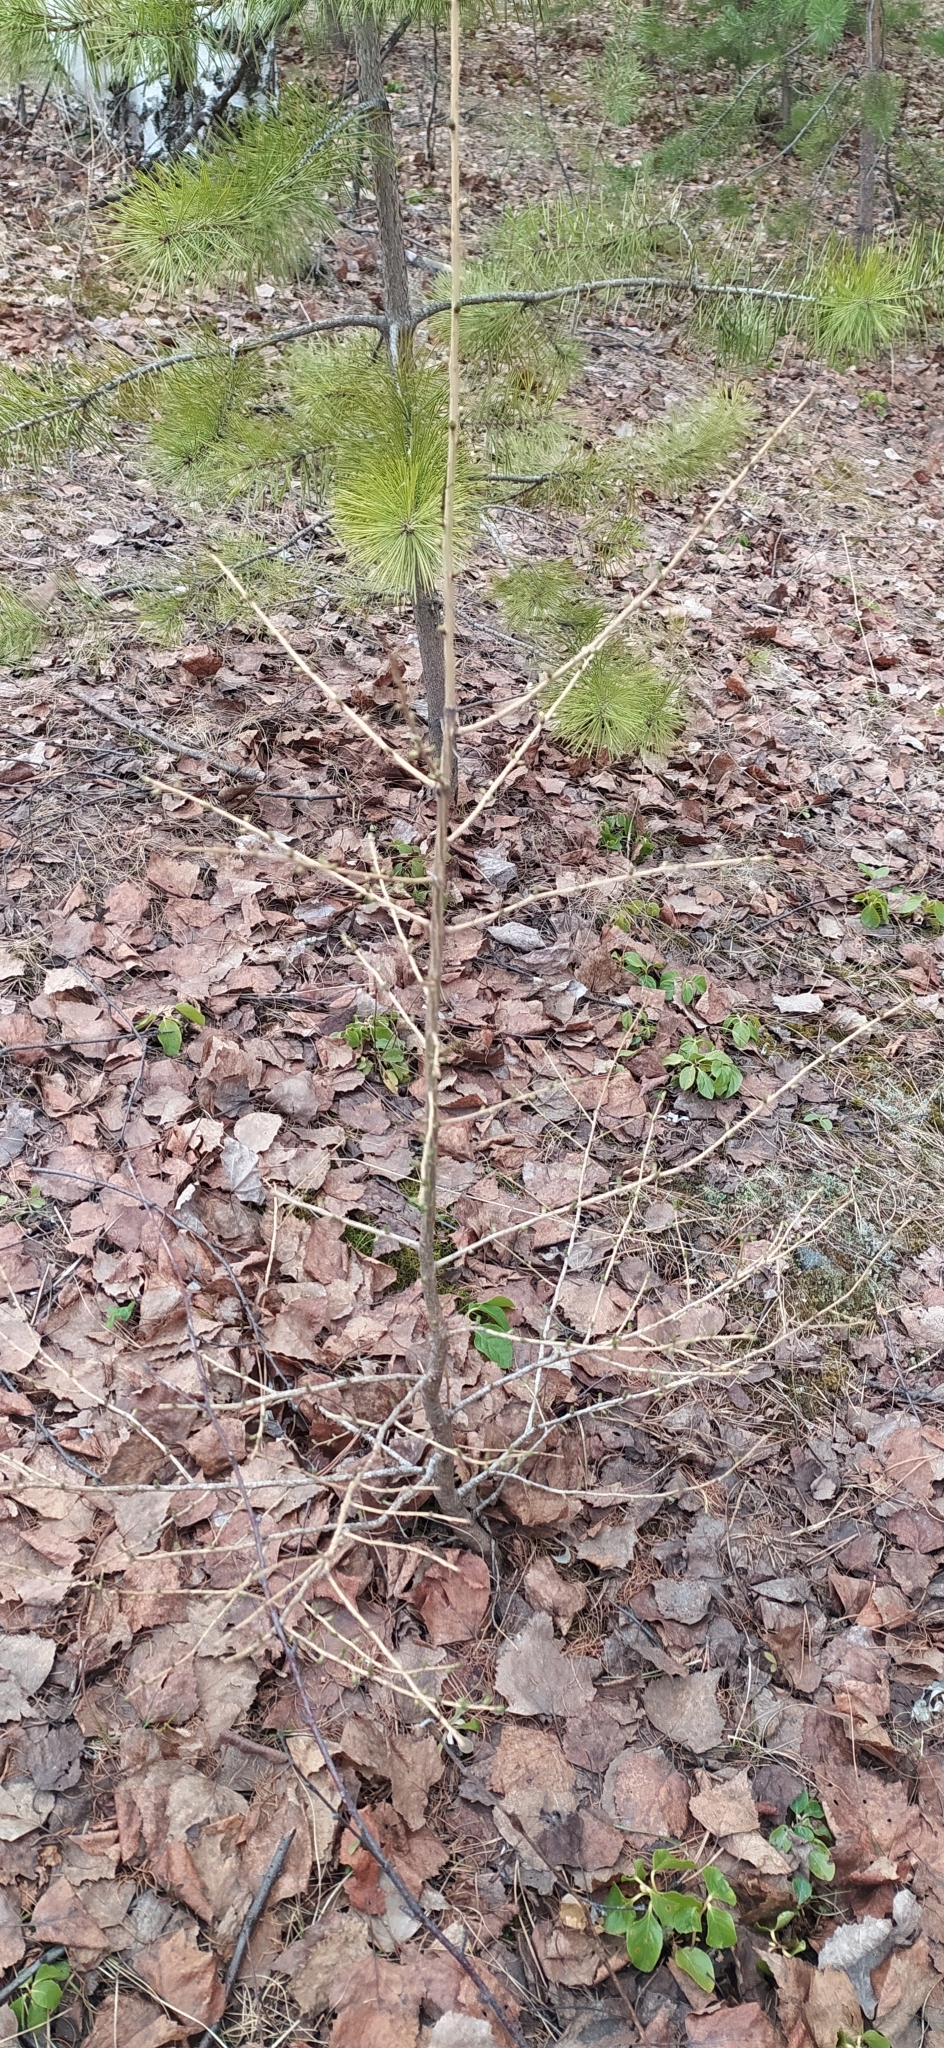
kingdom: Plantae
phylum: Tracheophyta
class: Pinopsida
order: Pinales
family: Pinaceae
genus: Larix
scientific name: Larix sibirica
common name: Siberian larch
